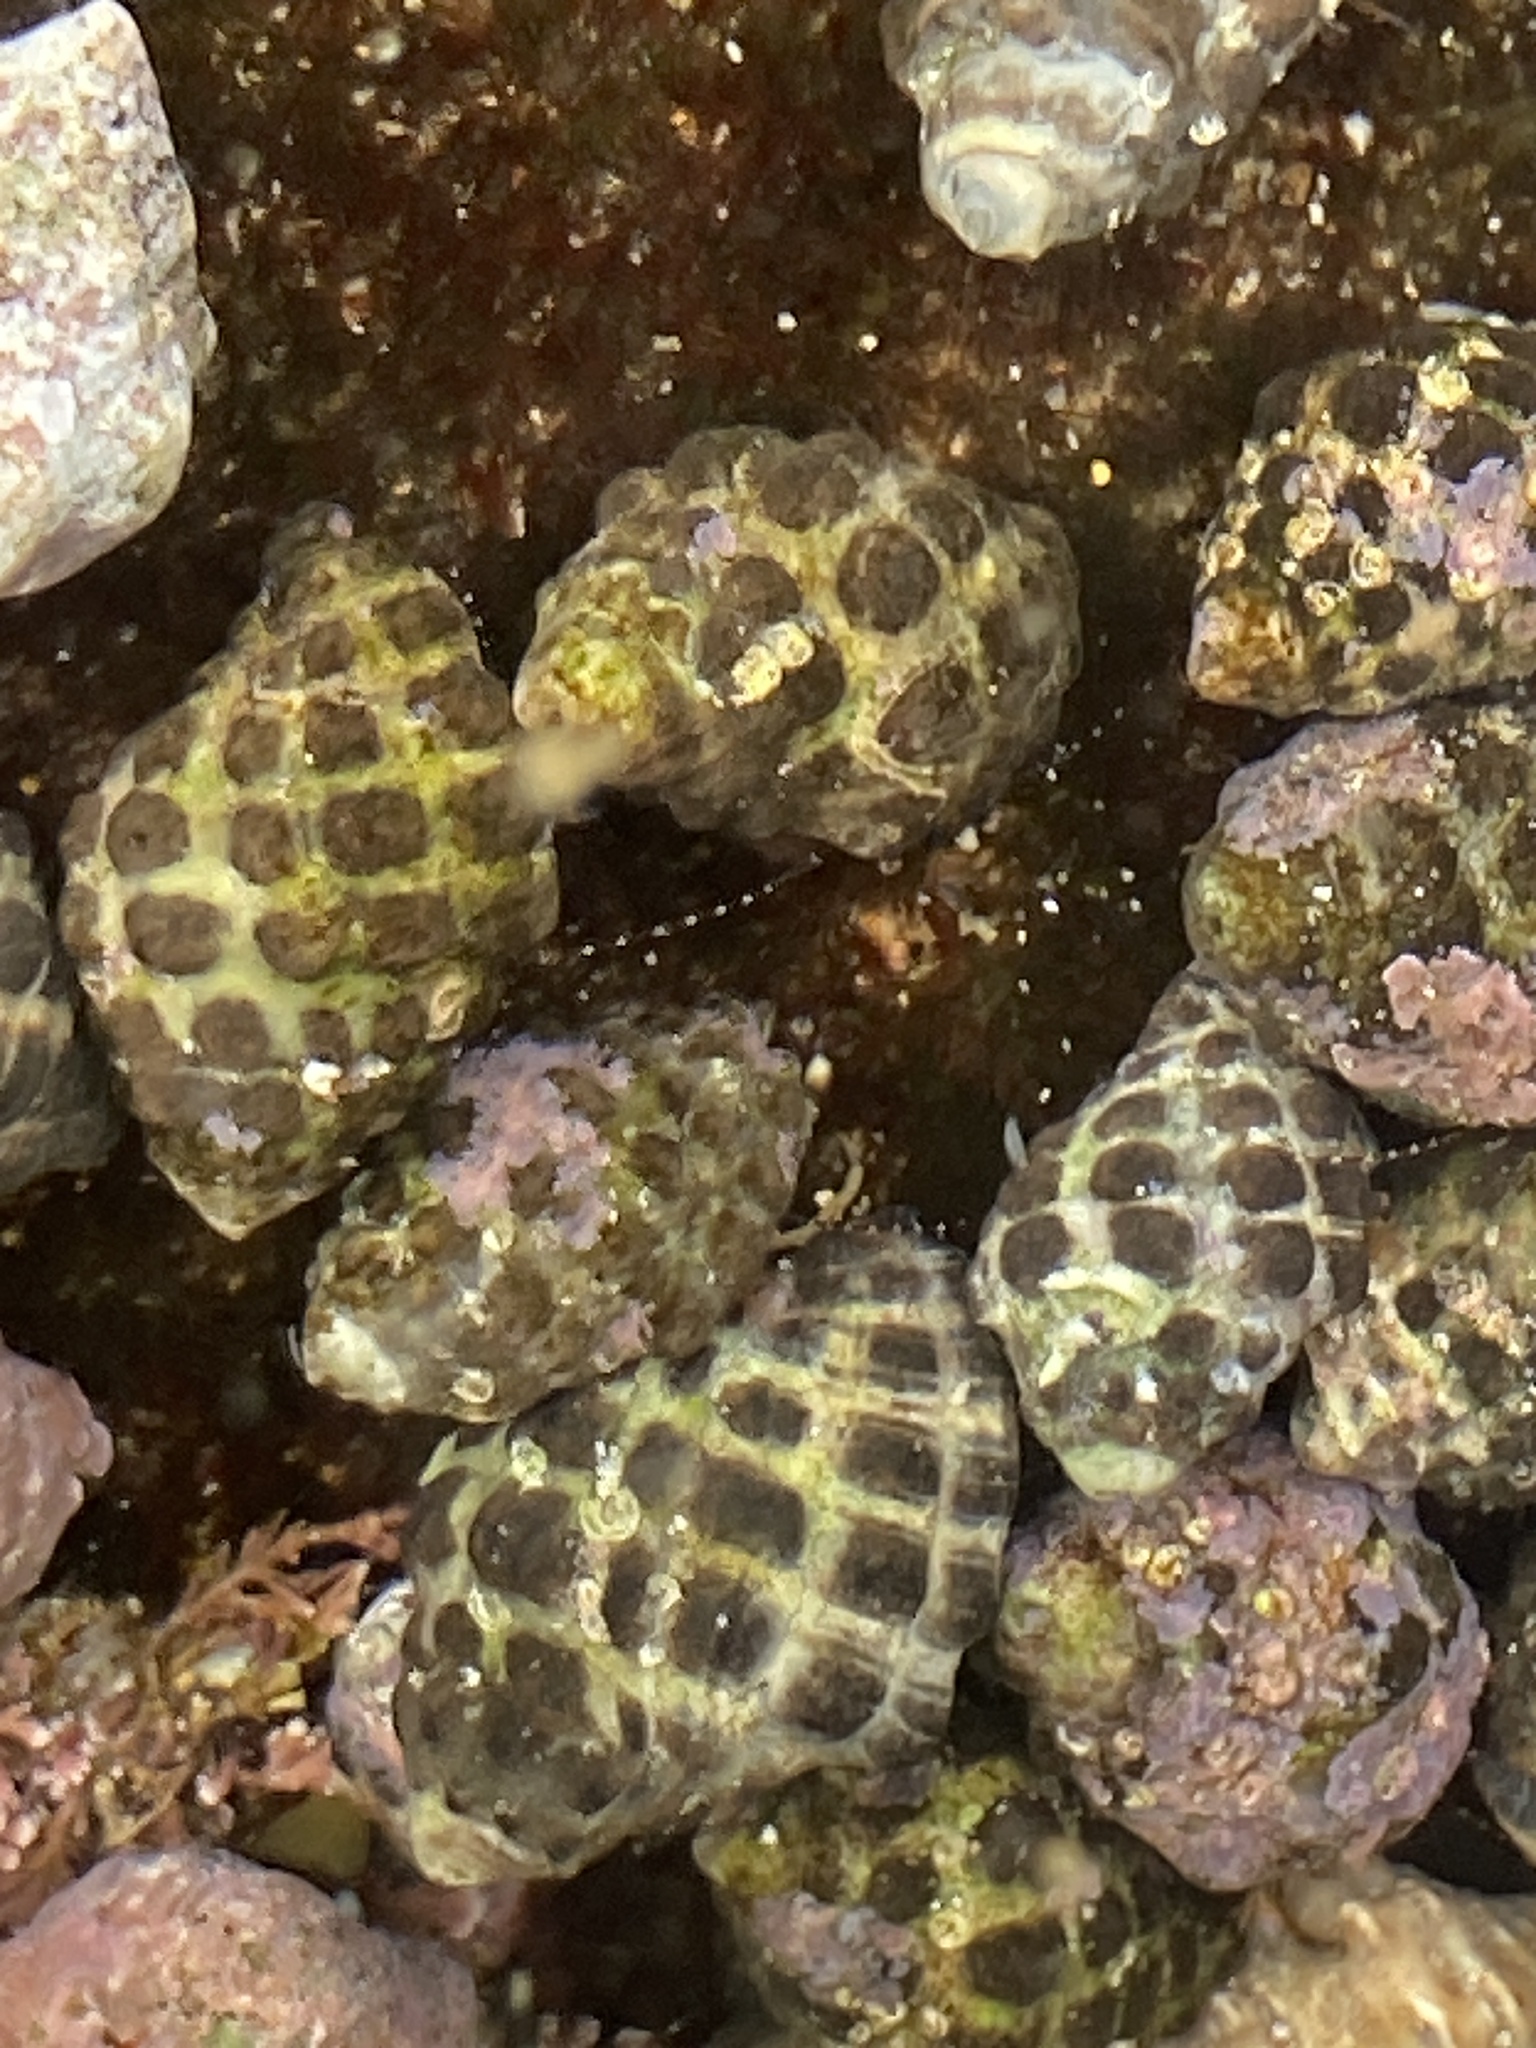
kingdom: Animalia
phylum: Arthropoda
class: Malacostraca
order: Decapoda
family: Diogenidae
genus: Paguristes
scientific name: Paguristes pugil
